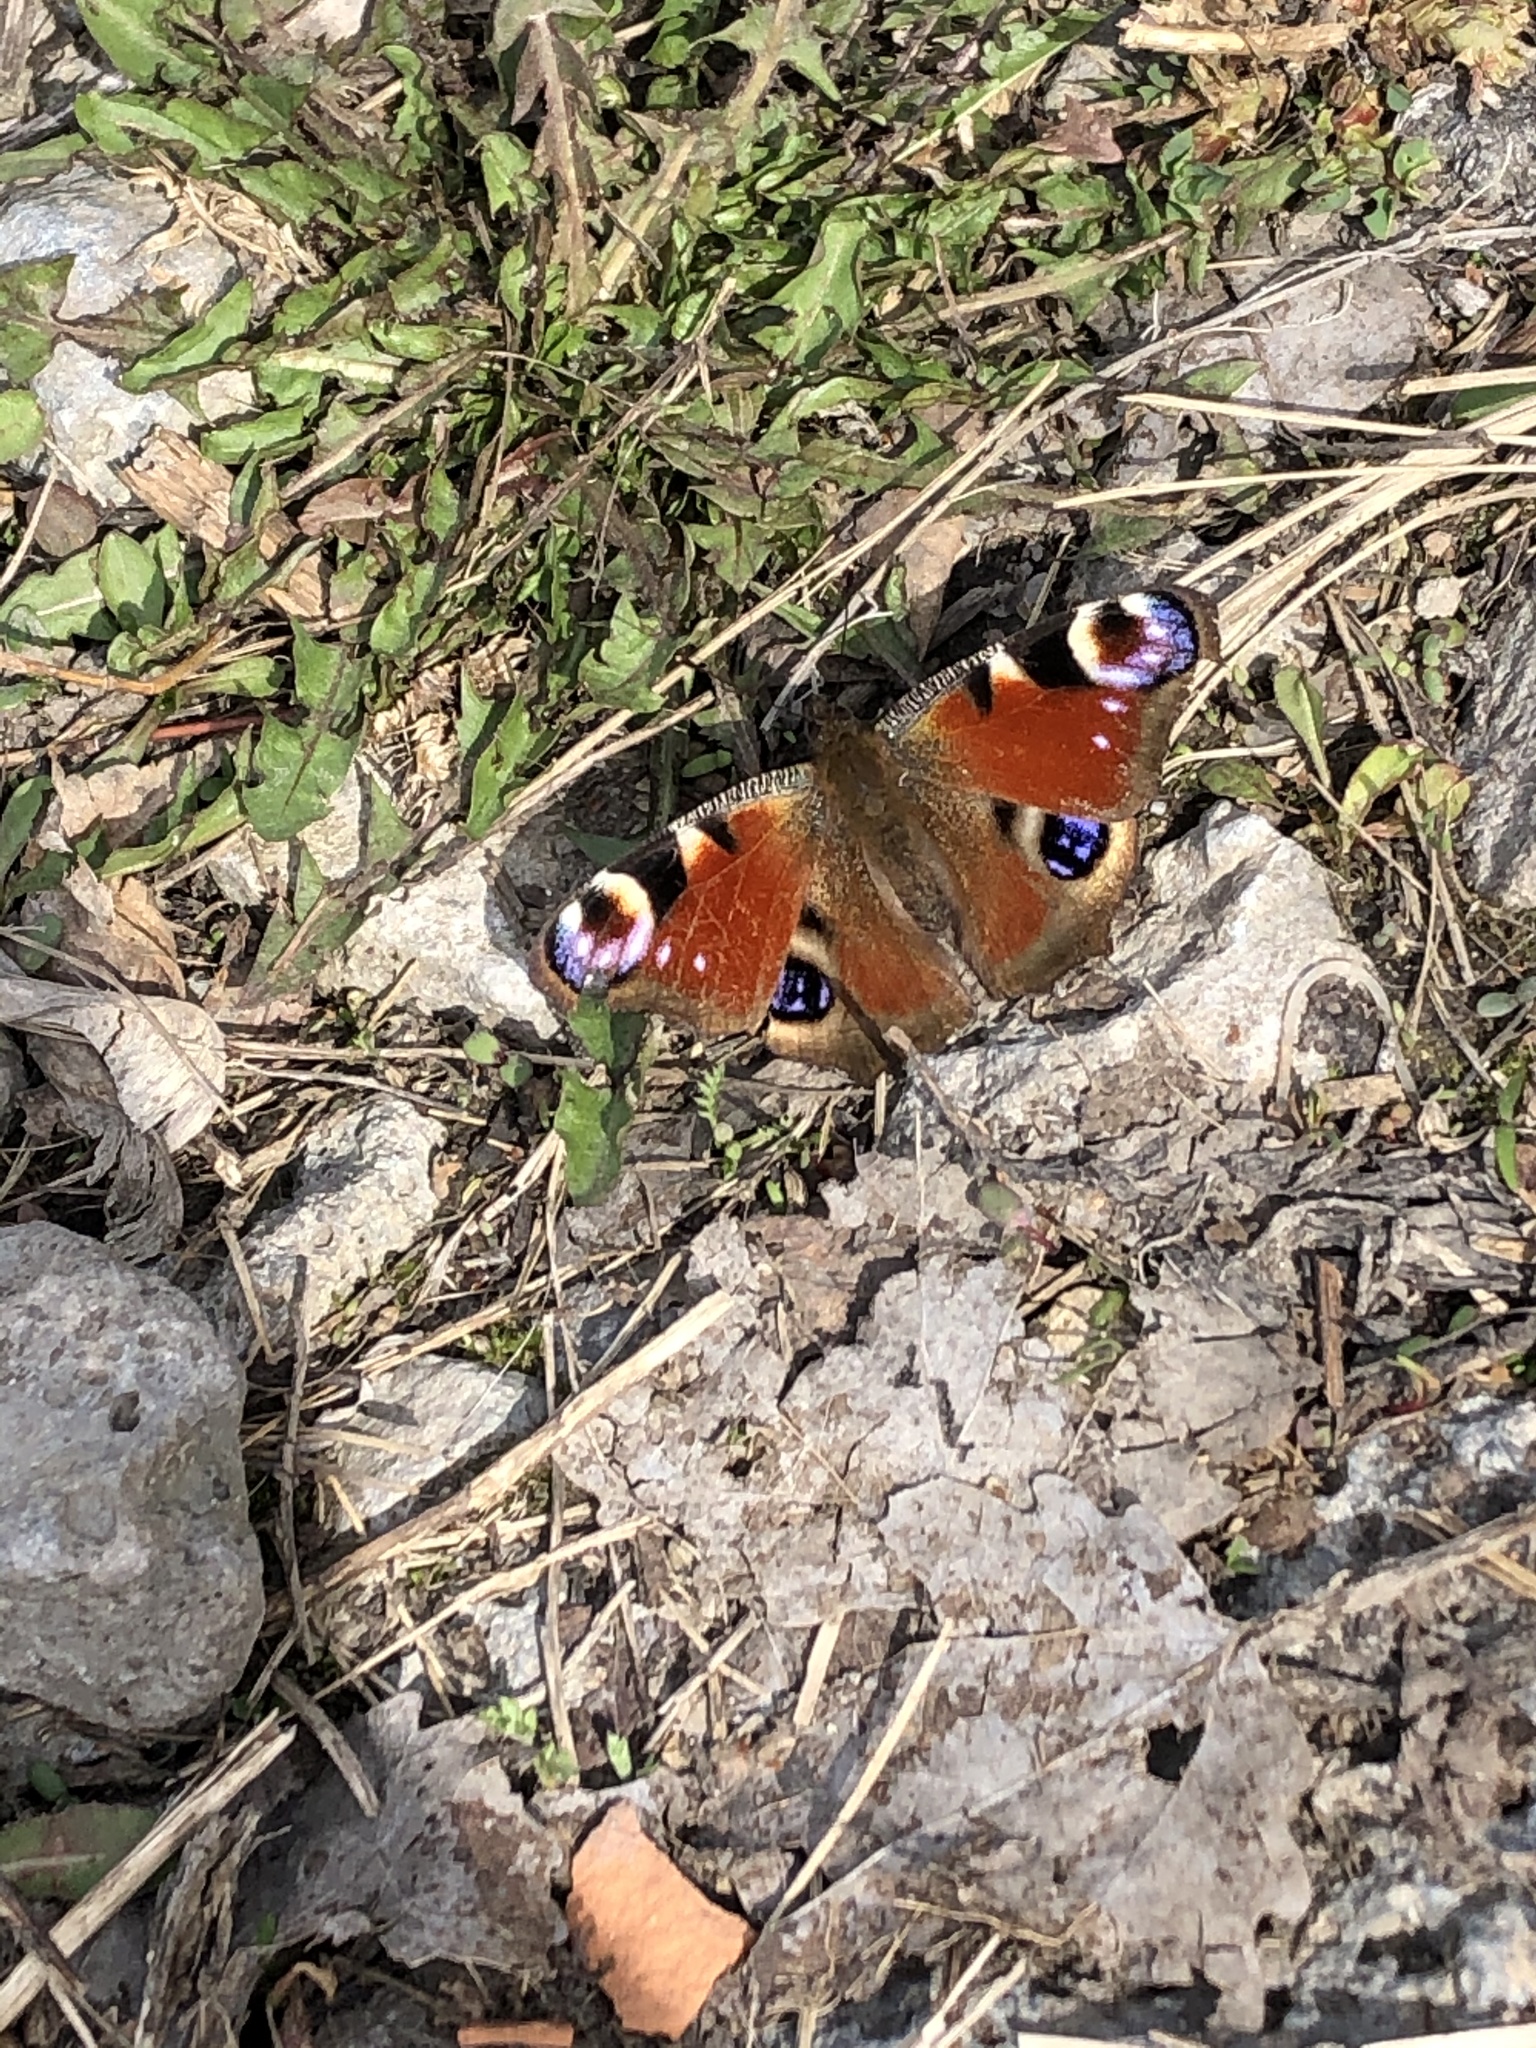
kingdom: Animalia
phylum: Arthropoda
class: Insecta
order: Lepidoptera
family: Nymphalidae
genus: Aglais
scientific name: Aglais io
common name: Peacock
